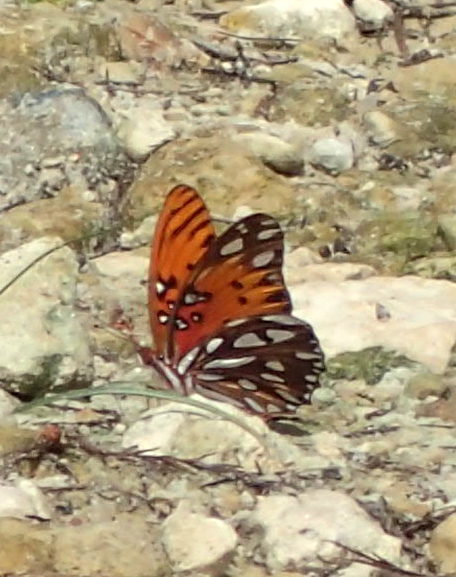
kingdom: Animalia
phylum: Arthropoda
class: Insecta
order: Lepidoptera
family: Nymphalidae
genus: Dione
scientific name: Dione vanillae
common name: Gulf fritillary
